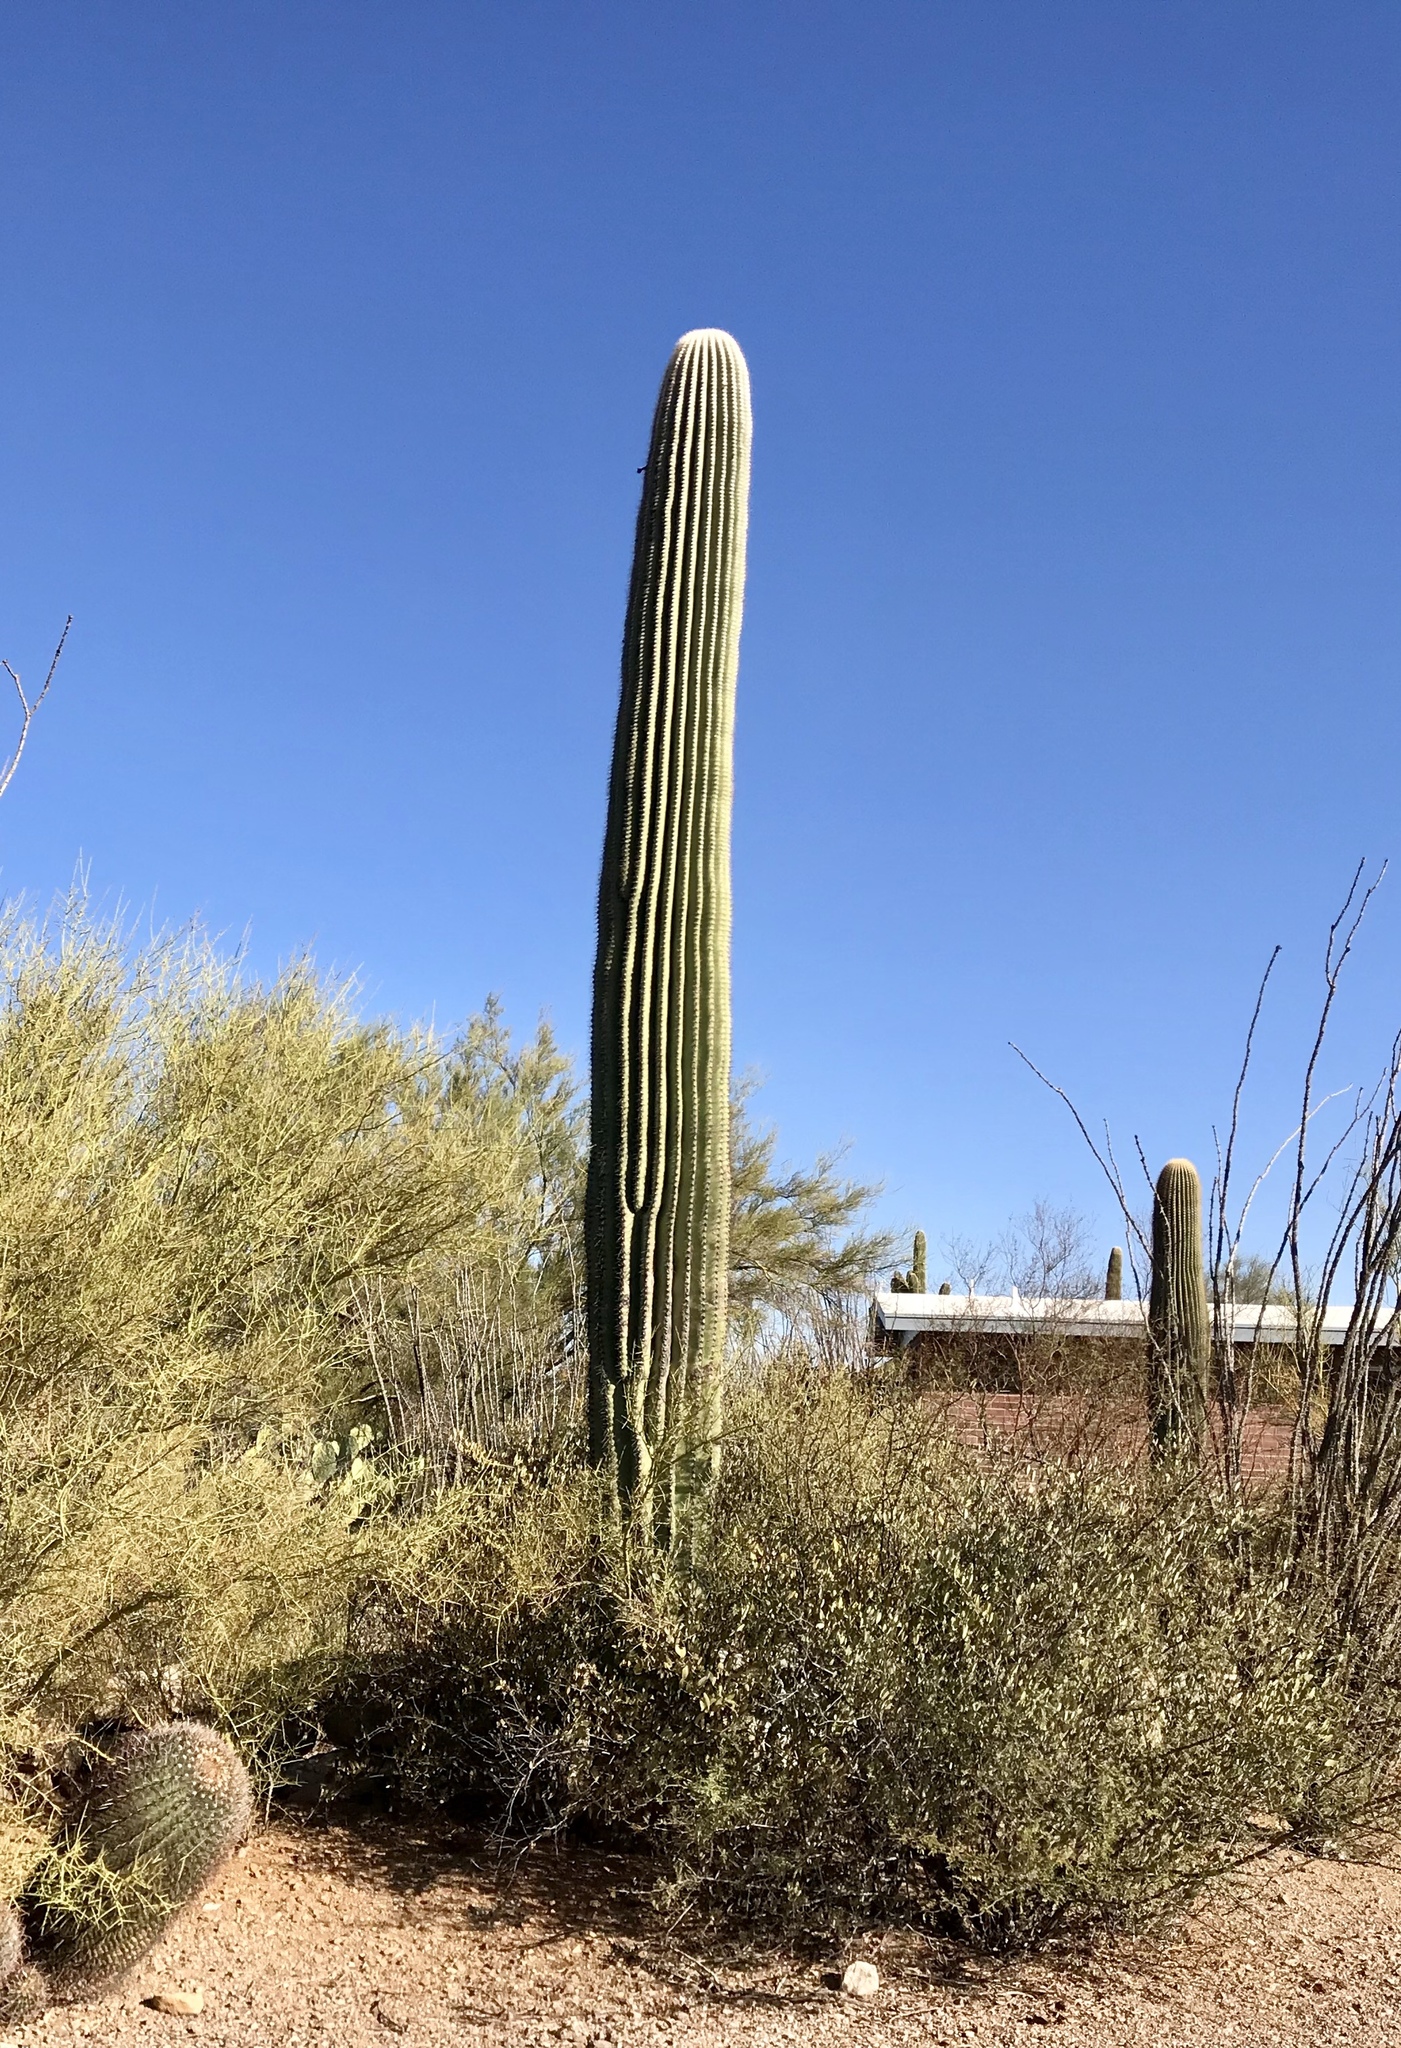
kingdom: Plantae
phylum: Tracheophyta
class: Magnoliopsida
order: Caryophyllales
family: Cactaceae
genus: Carnegiea
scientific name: Carnegiea gigantea
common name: Saguaro
